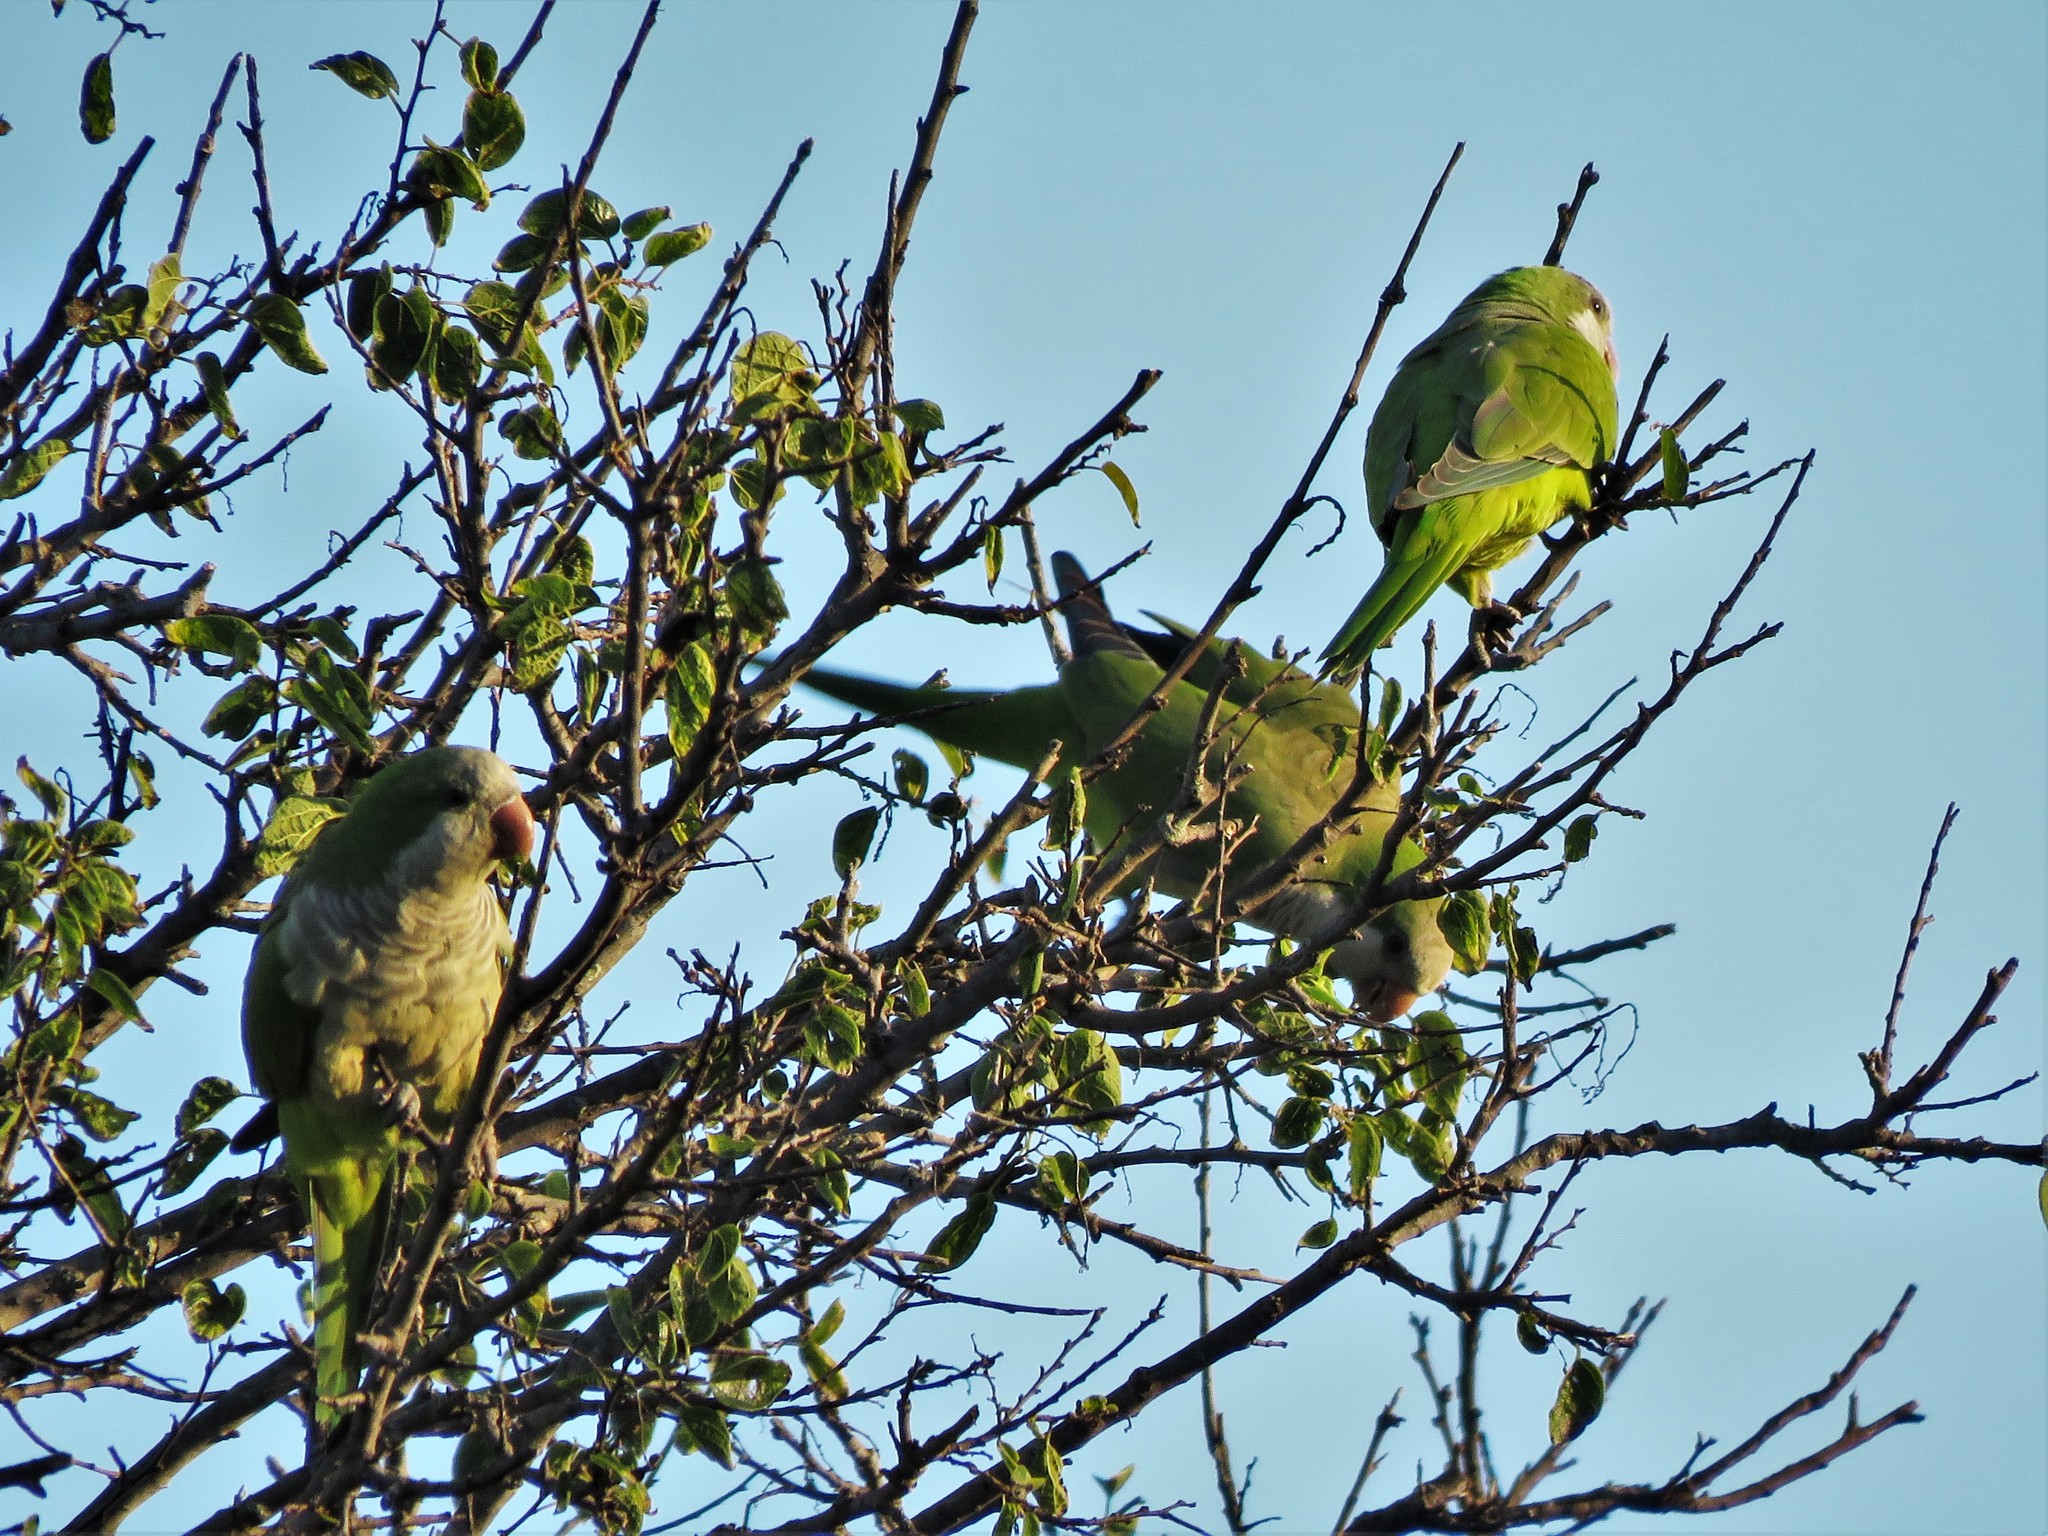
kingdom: Animalia
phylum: Chordata
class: Aves
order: Psittaciformes
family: Psittacidae
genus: Myiopsitta
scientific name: Myiopsitta monachus
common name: Monk parakeet
